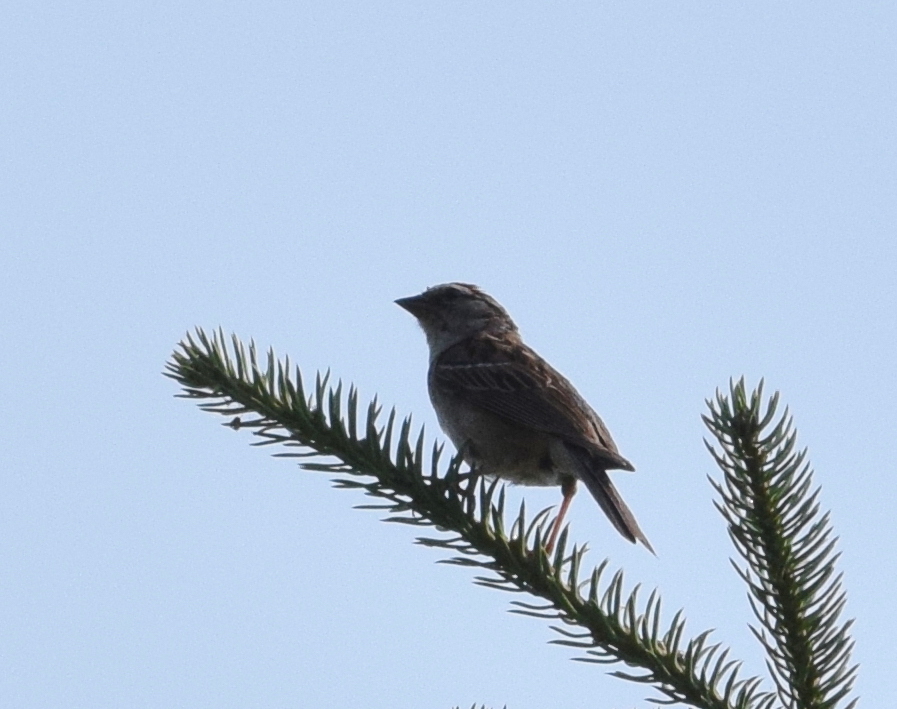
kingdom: Animalia
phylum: Chordata
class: Aves
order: Passeriformes
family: Passerellidae
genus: Spizella
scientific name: Spizella passerina
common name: Chipping sparrow
